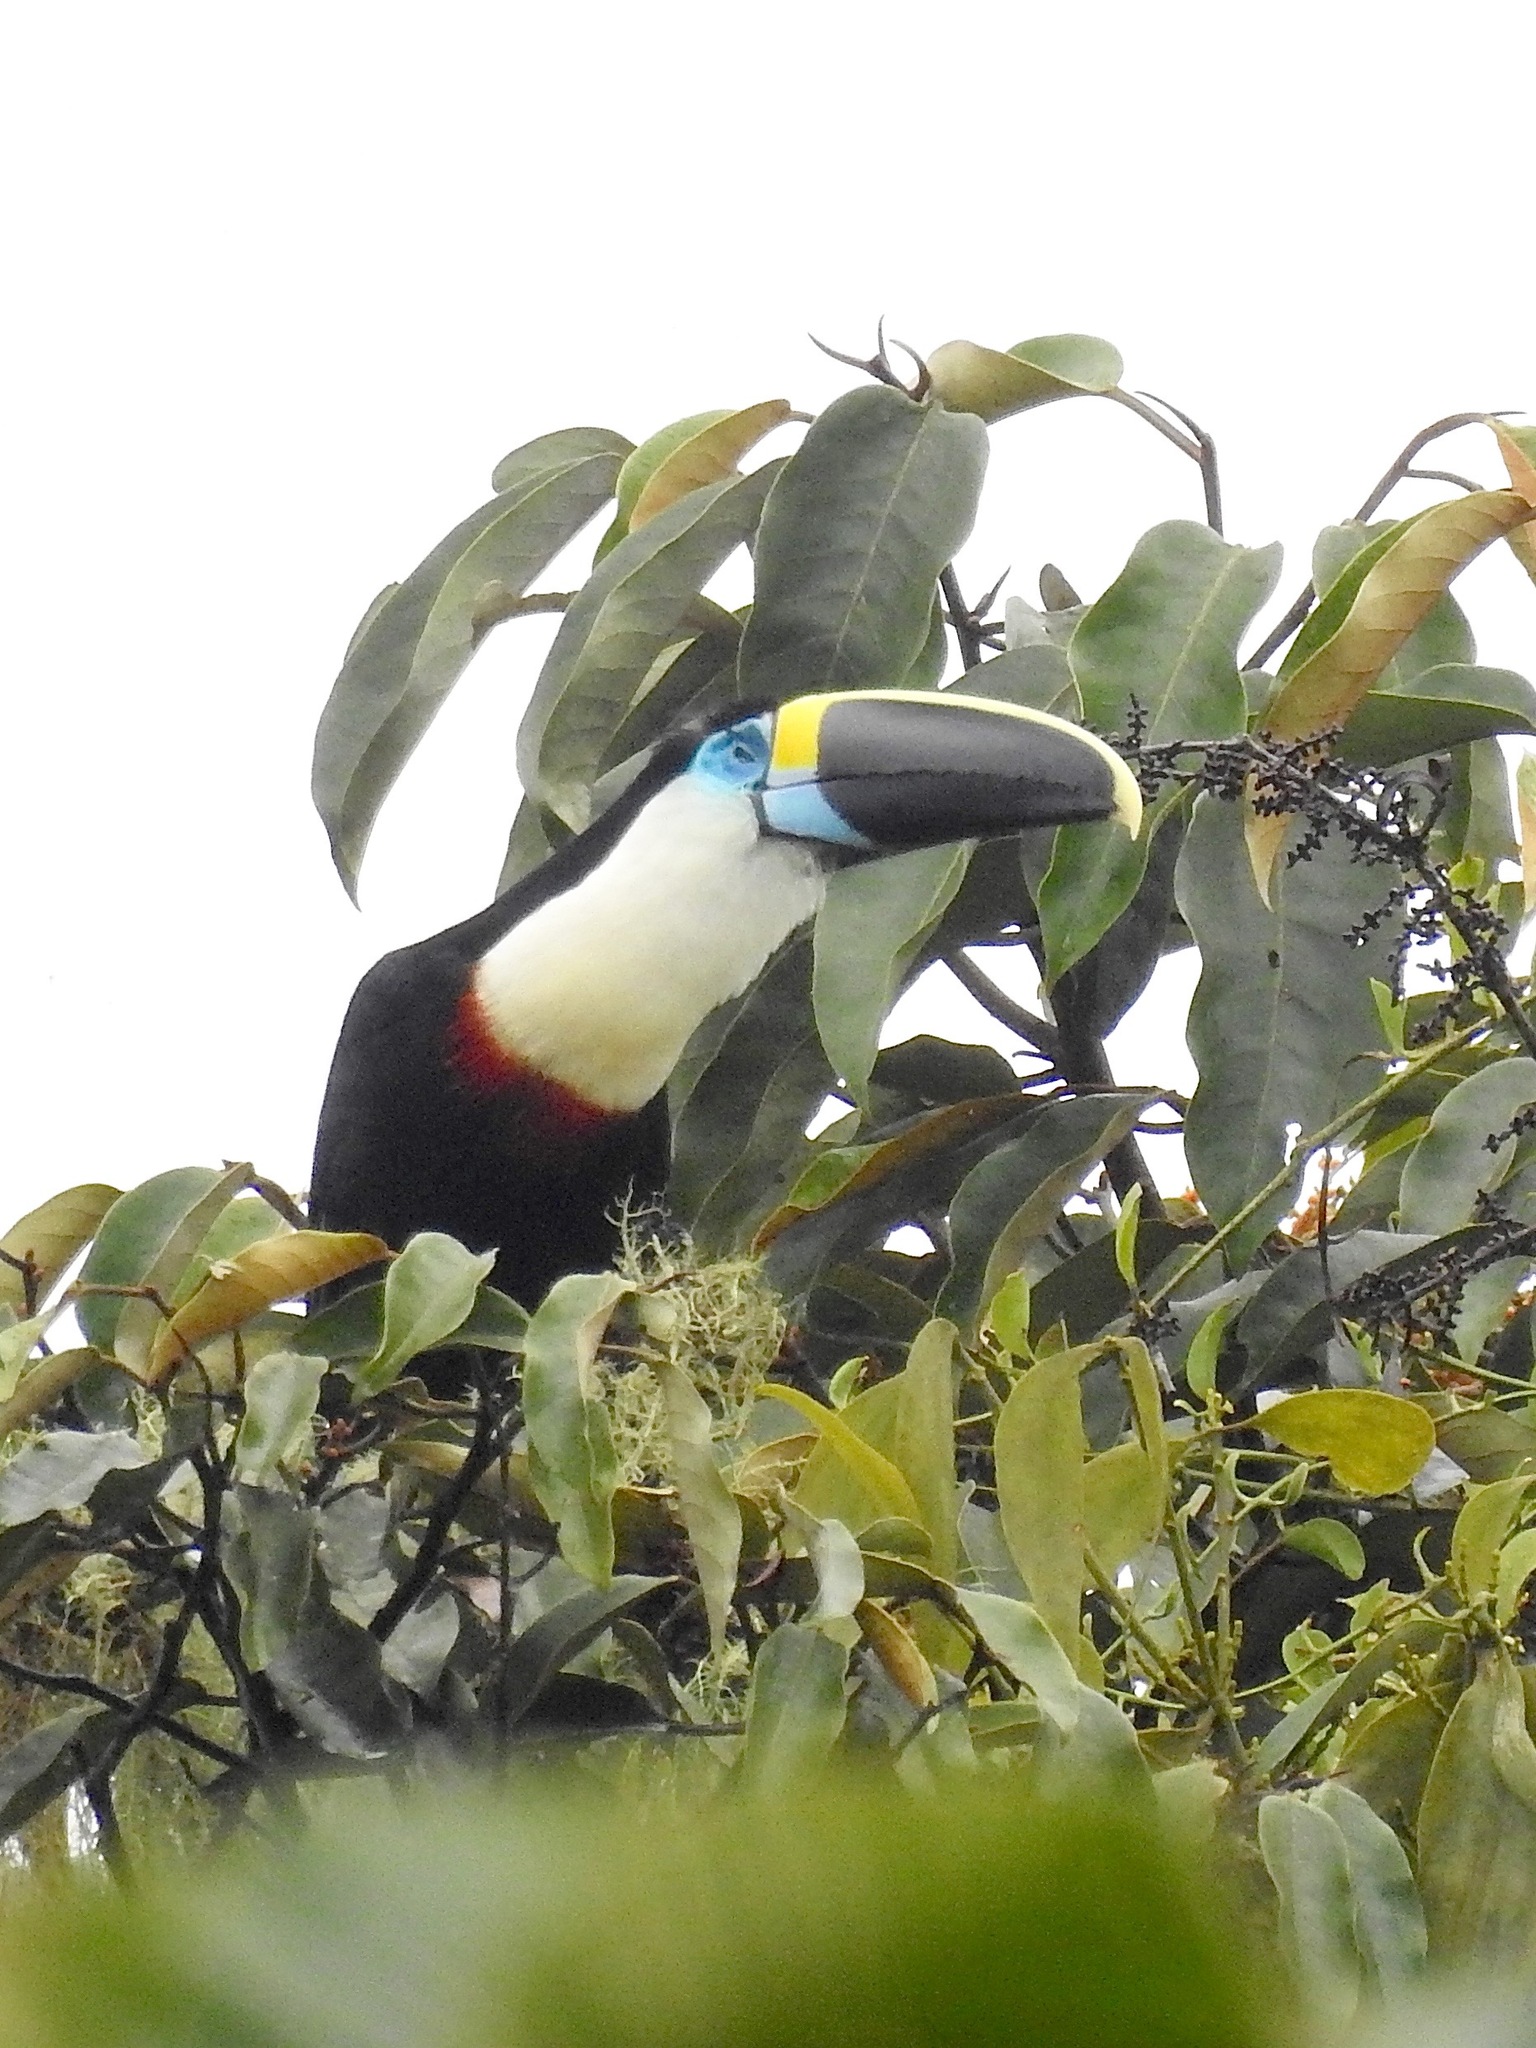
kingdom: Animalia
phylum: Chordata
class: Aves
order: Piciformes
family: Ramphastidae
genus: Ramphastos
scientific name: Ramphastos vitellinus
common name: Channel-billed toucan
